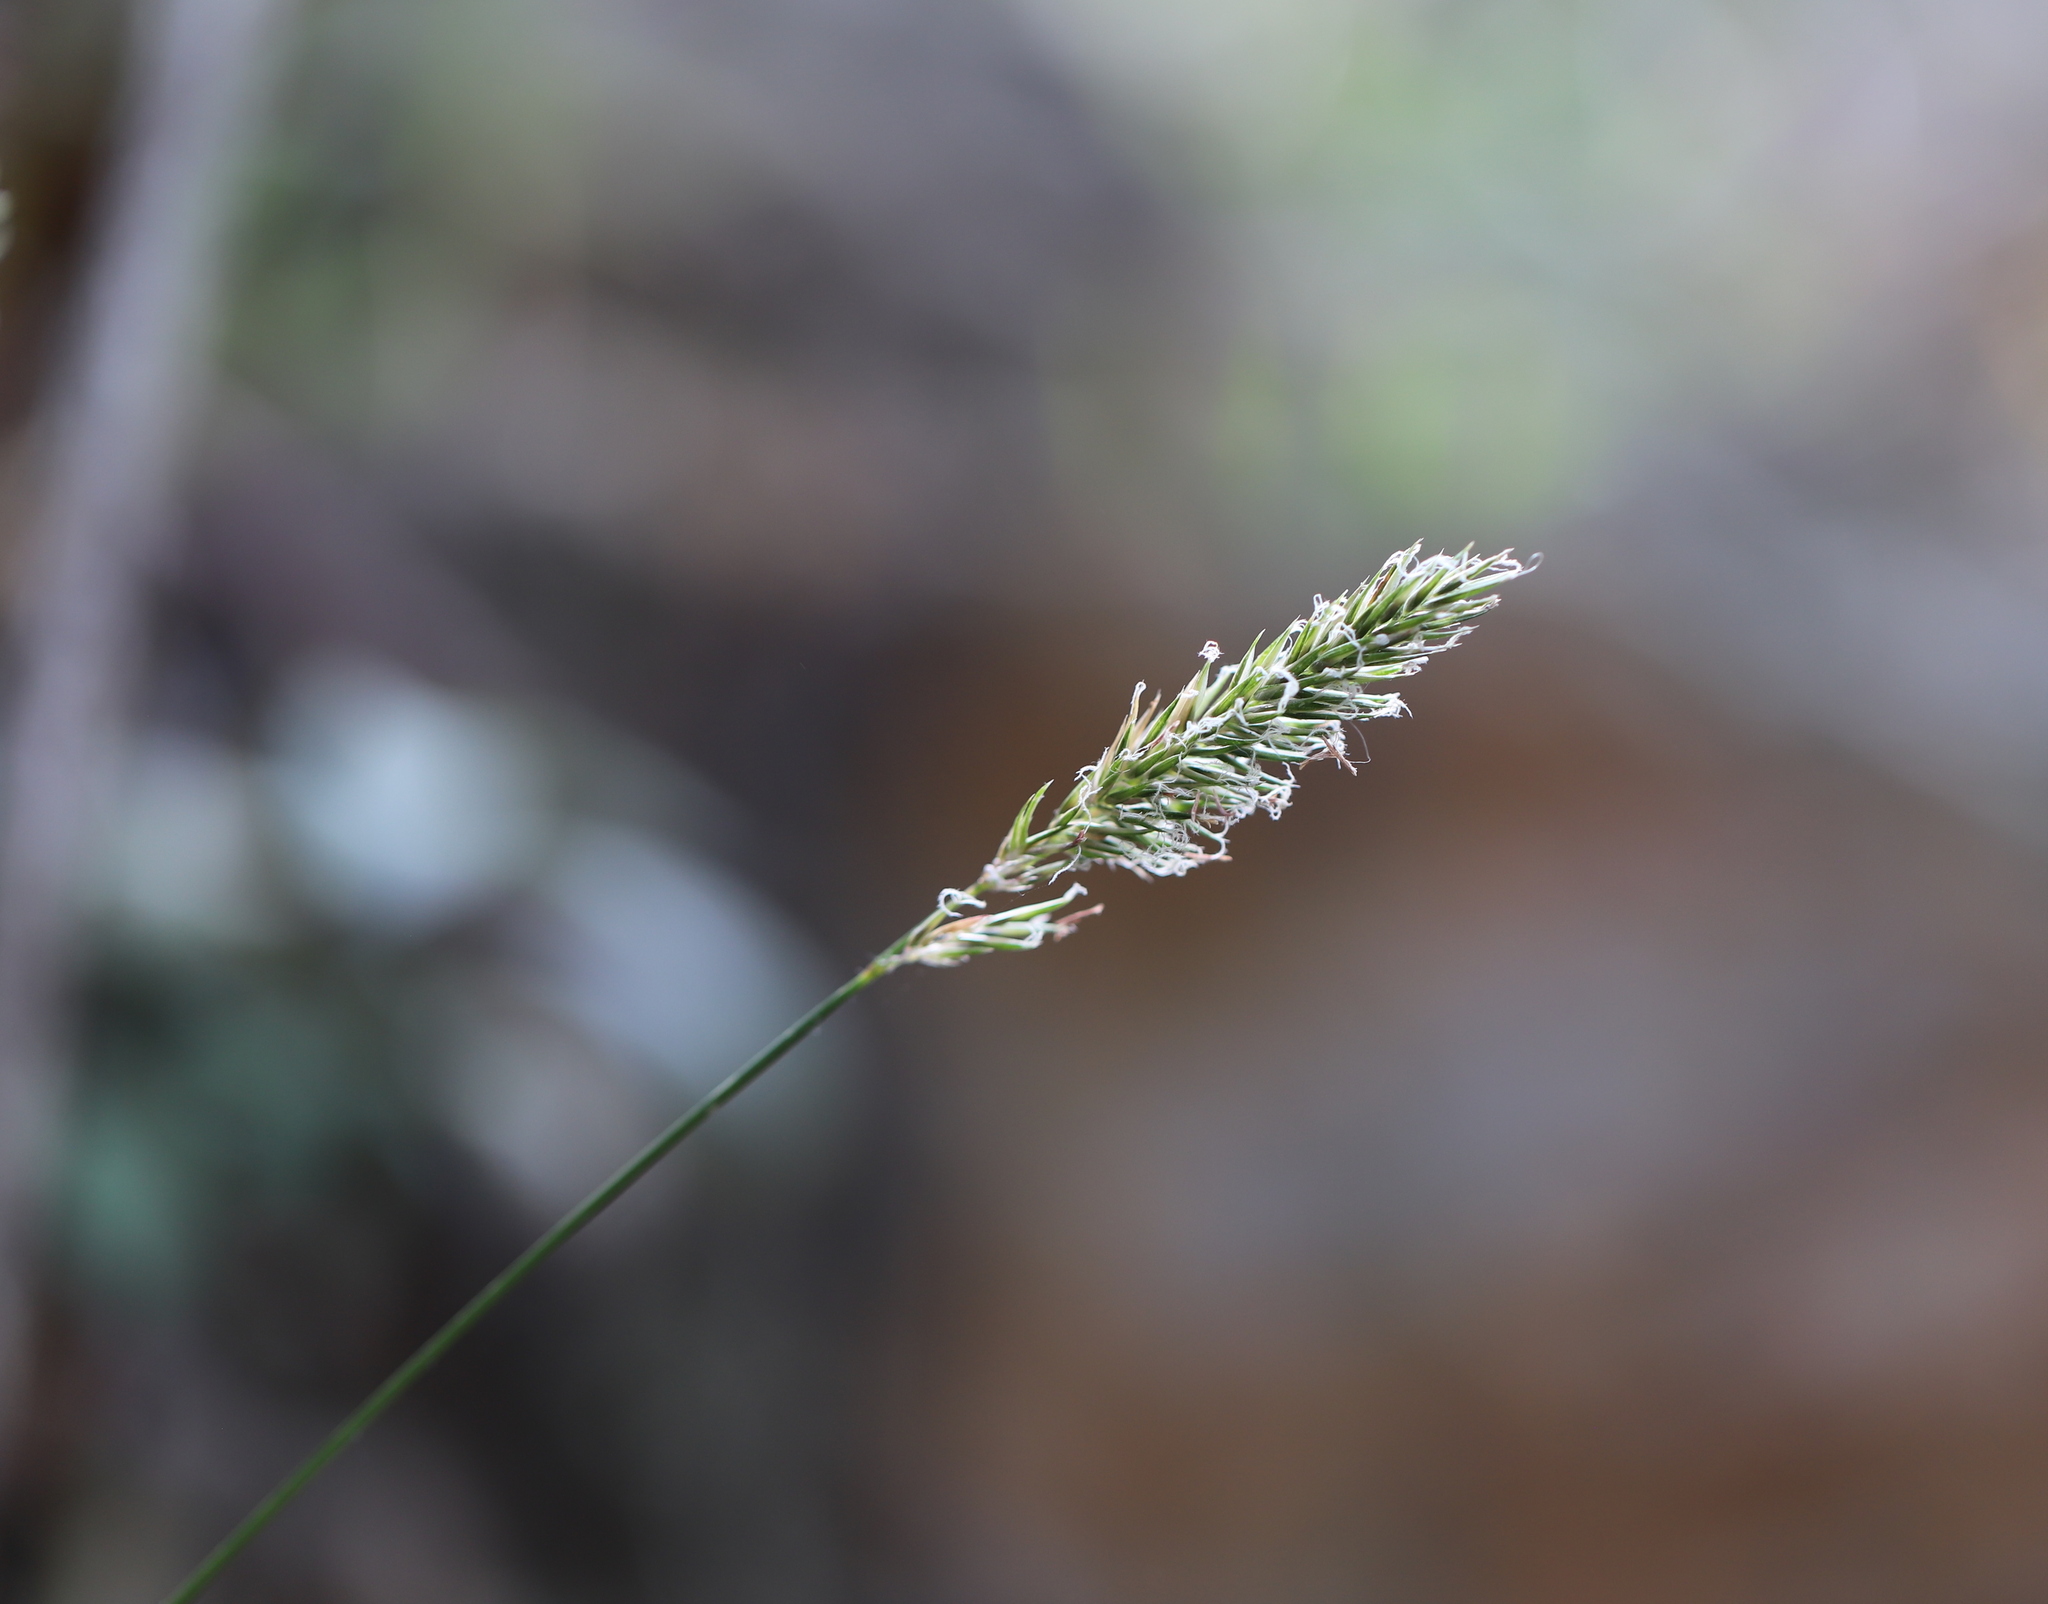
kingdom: Plantae
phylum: Tracheophyta
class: Liliopsida
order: Poales
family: Poaceae
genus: Anthoxanthum
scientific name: Anthoxanthum odoratum
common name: Sweet vernalgrass
